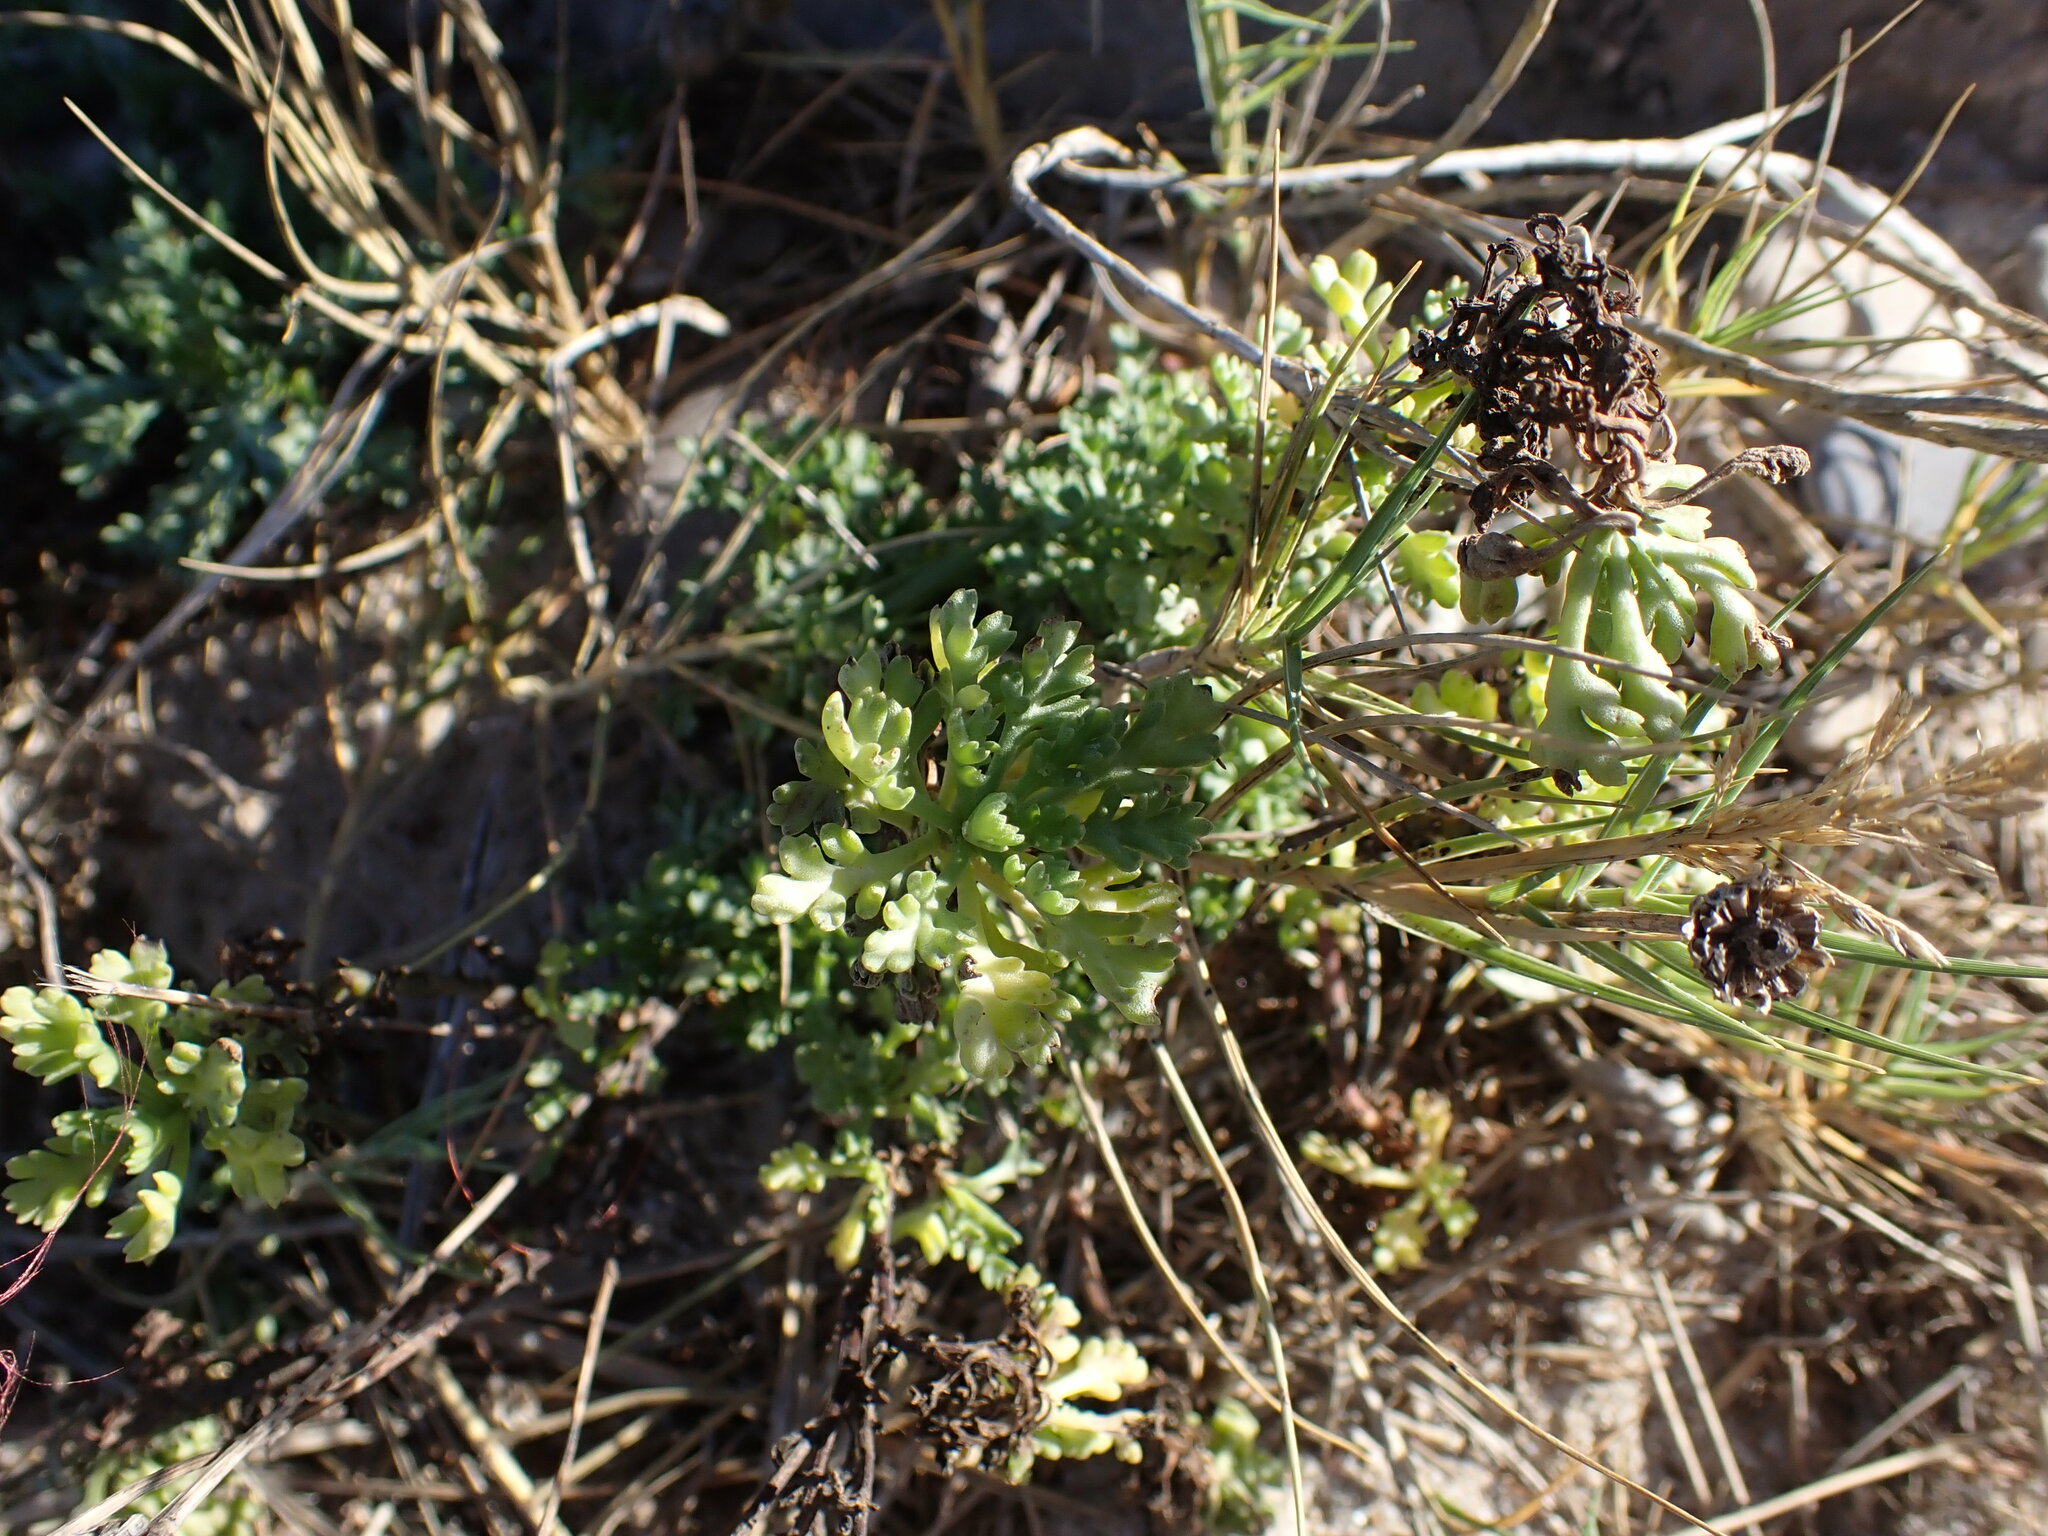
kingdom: Plantae
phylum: Tracheophyta
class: Magnoliopsida
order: Asterales
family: Asteraceae
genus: Anthemis
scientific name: Anthemis maritima
